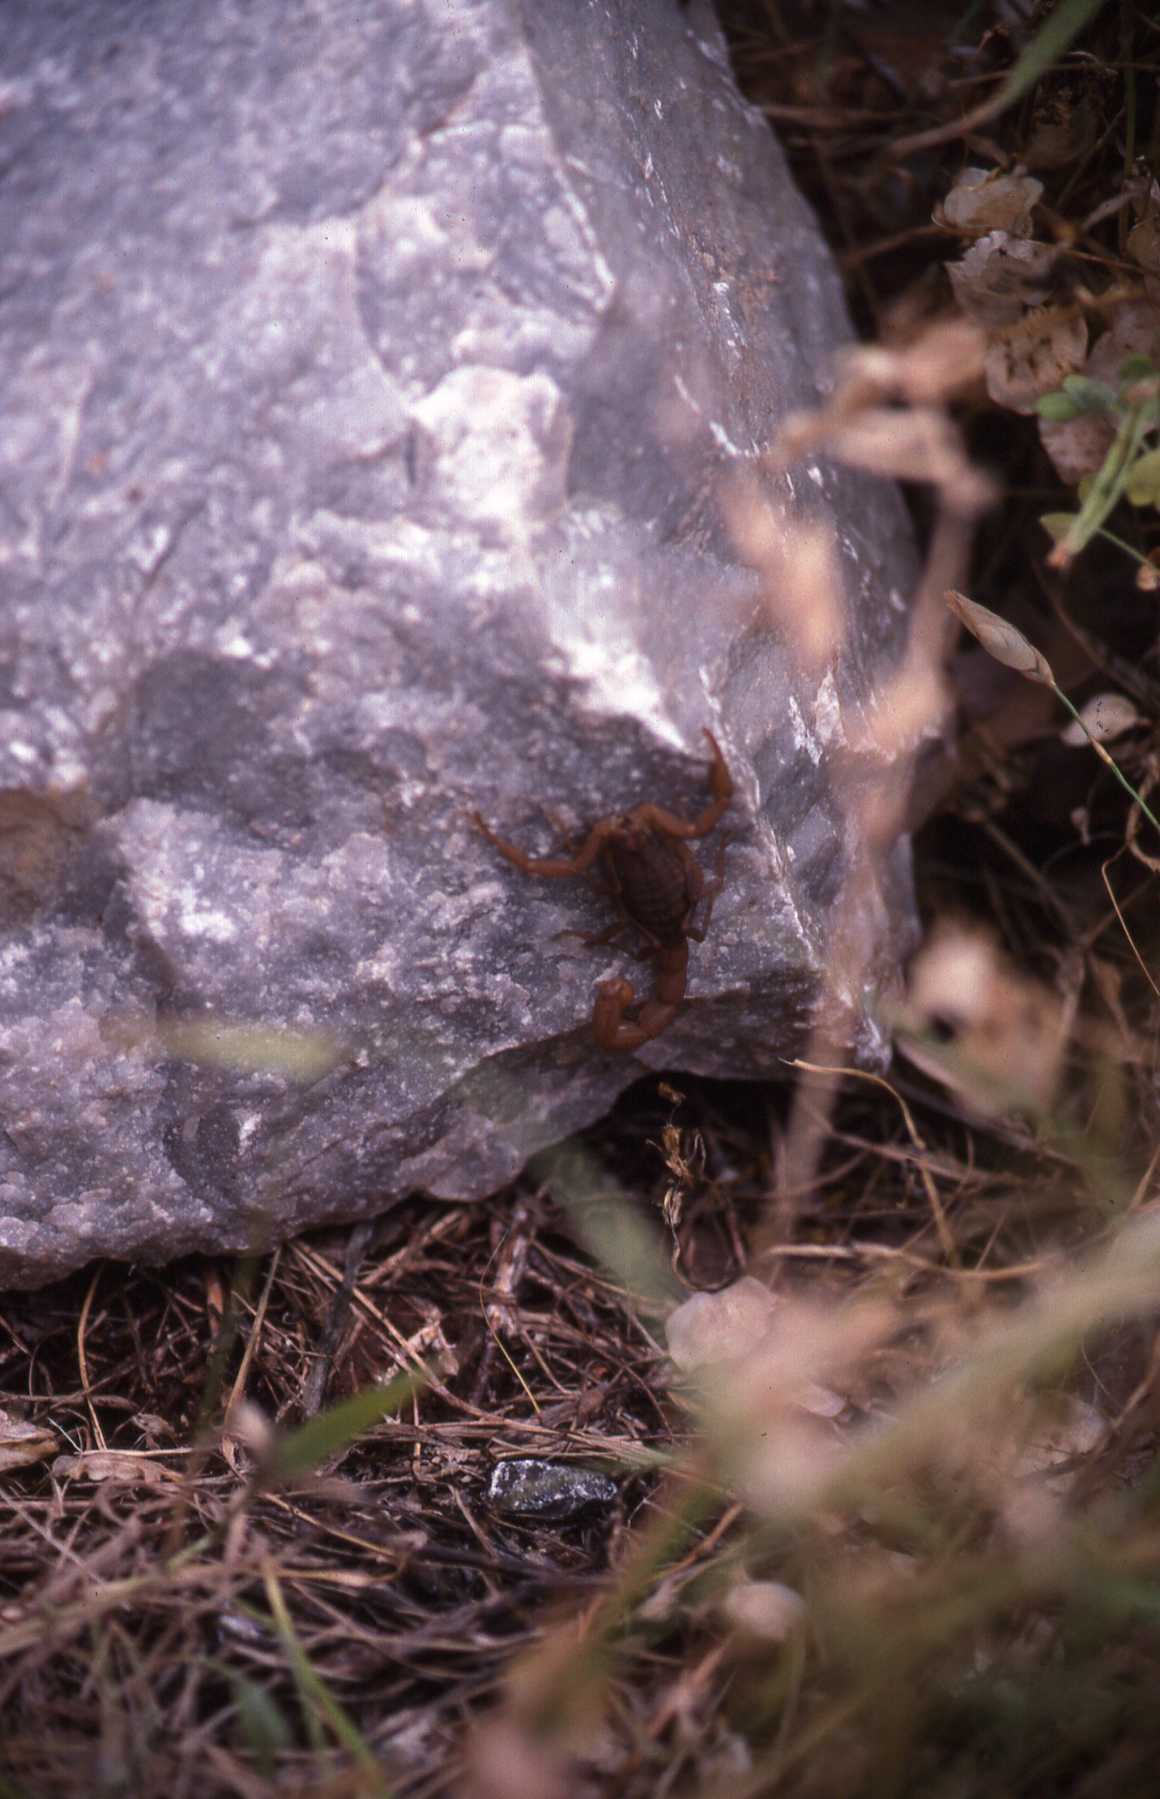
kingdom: Animalia
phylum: Arthropoda
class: Arachnida
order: Scorpiones
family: Buthidae
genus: Aegaeobuthus
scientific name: Aegaeobuthus gibbosus
